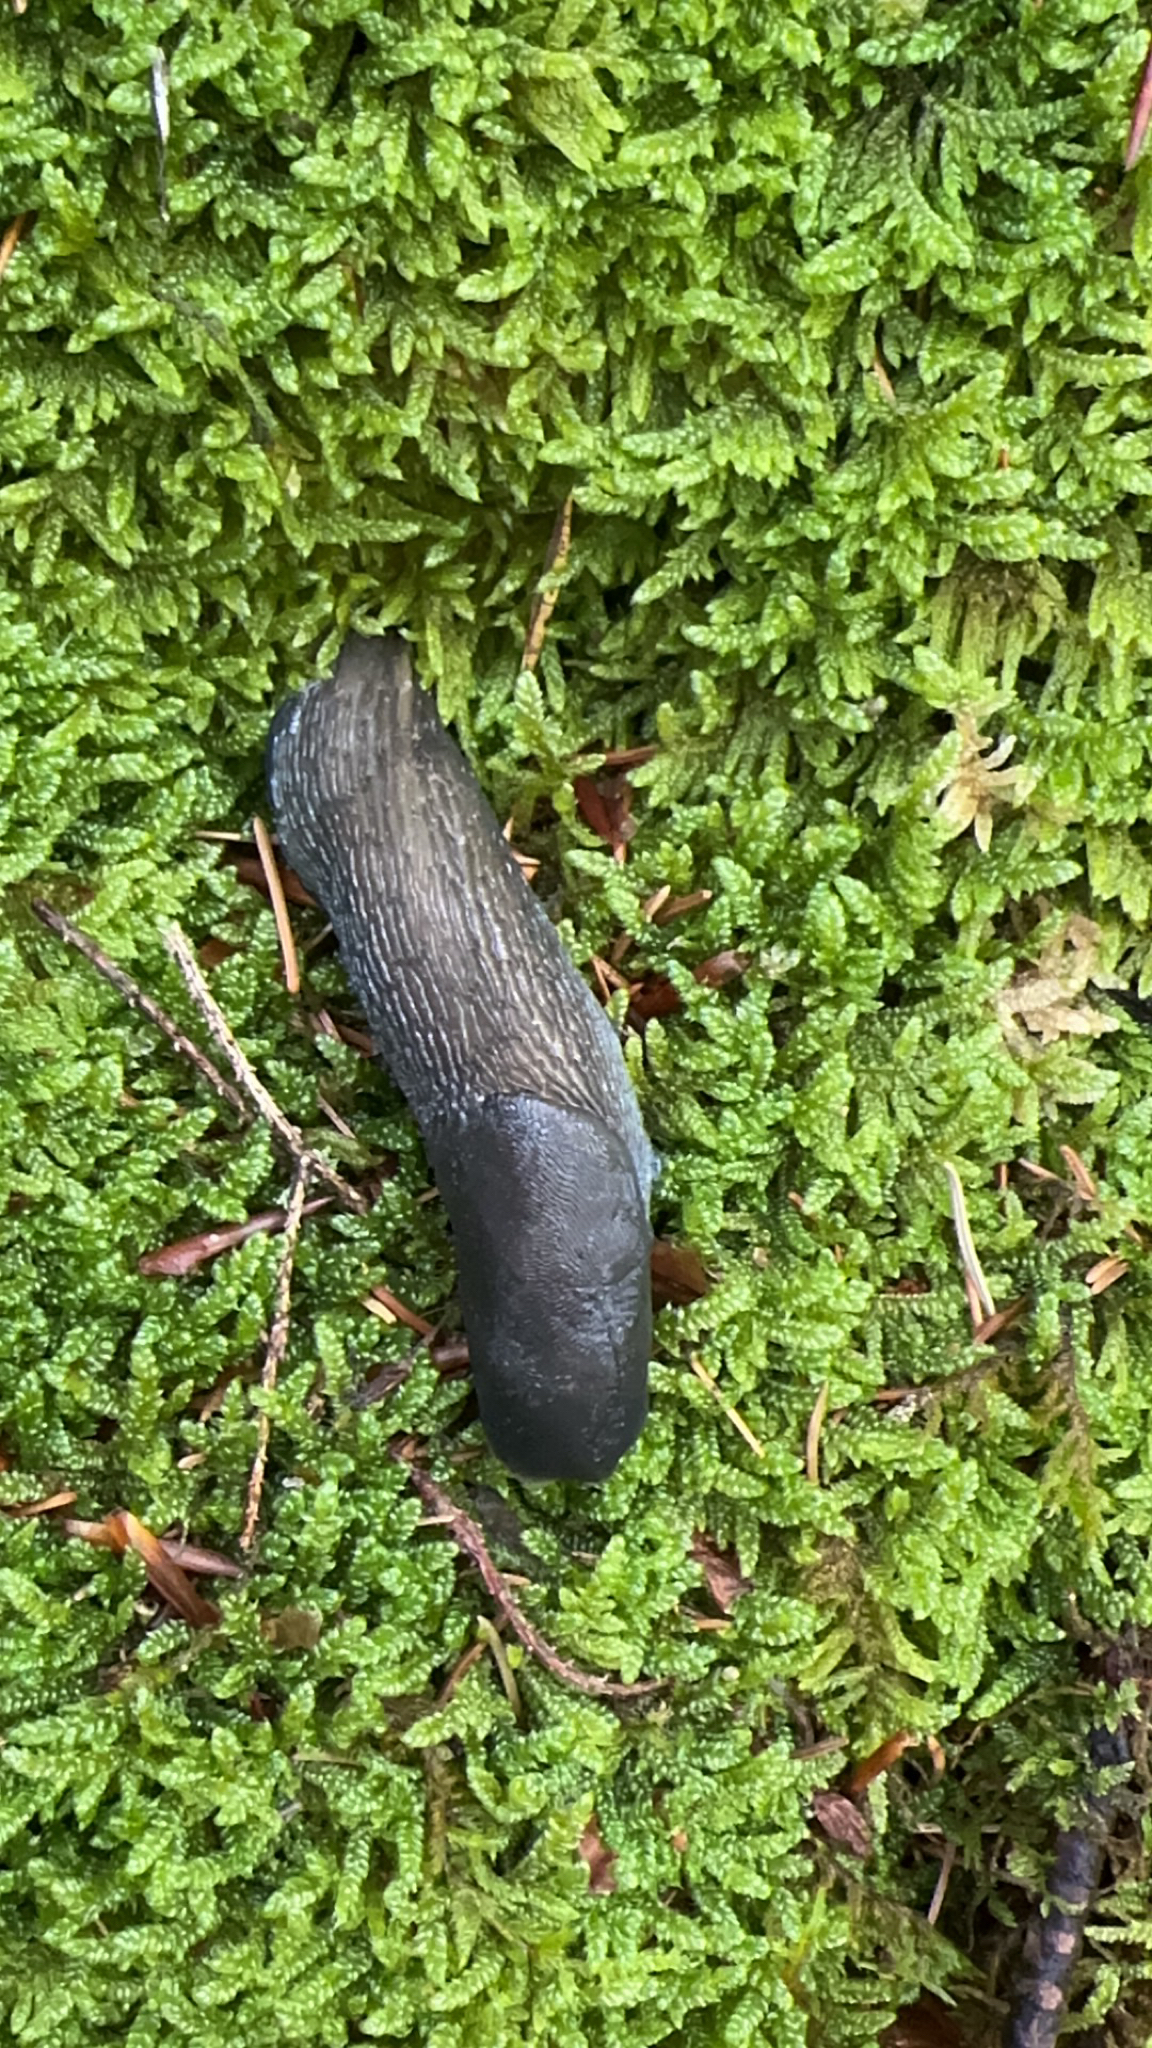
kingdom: Animalia
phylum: Mollusca
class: Gastropoda
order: Stylommatophora
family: Limacidae
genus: Limax
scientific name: Limax cinereoniger
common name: Ash-black slug
